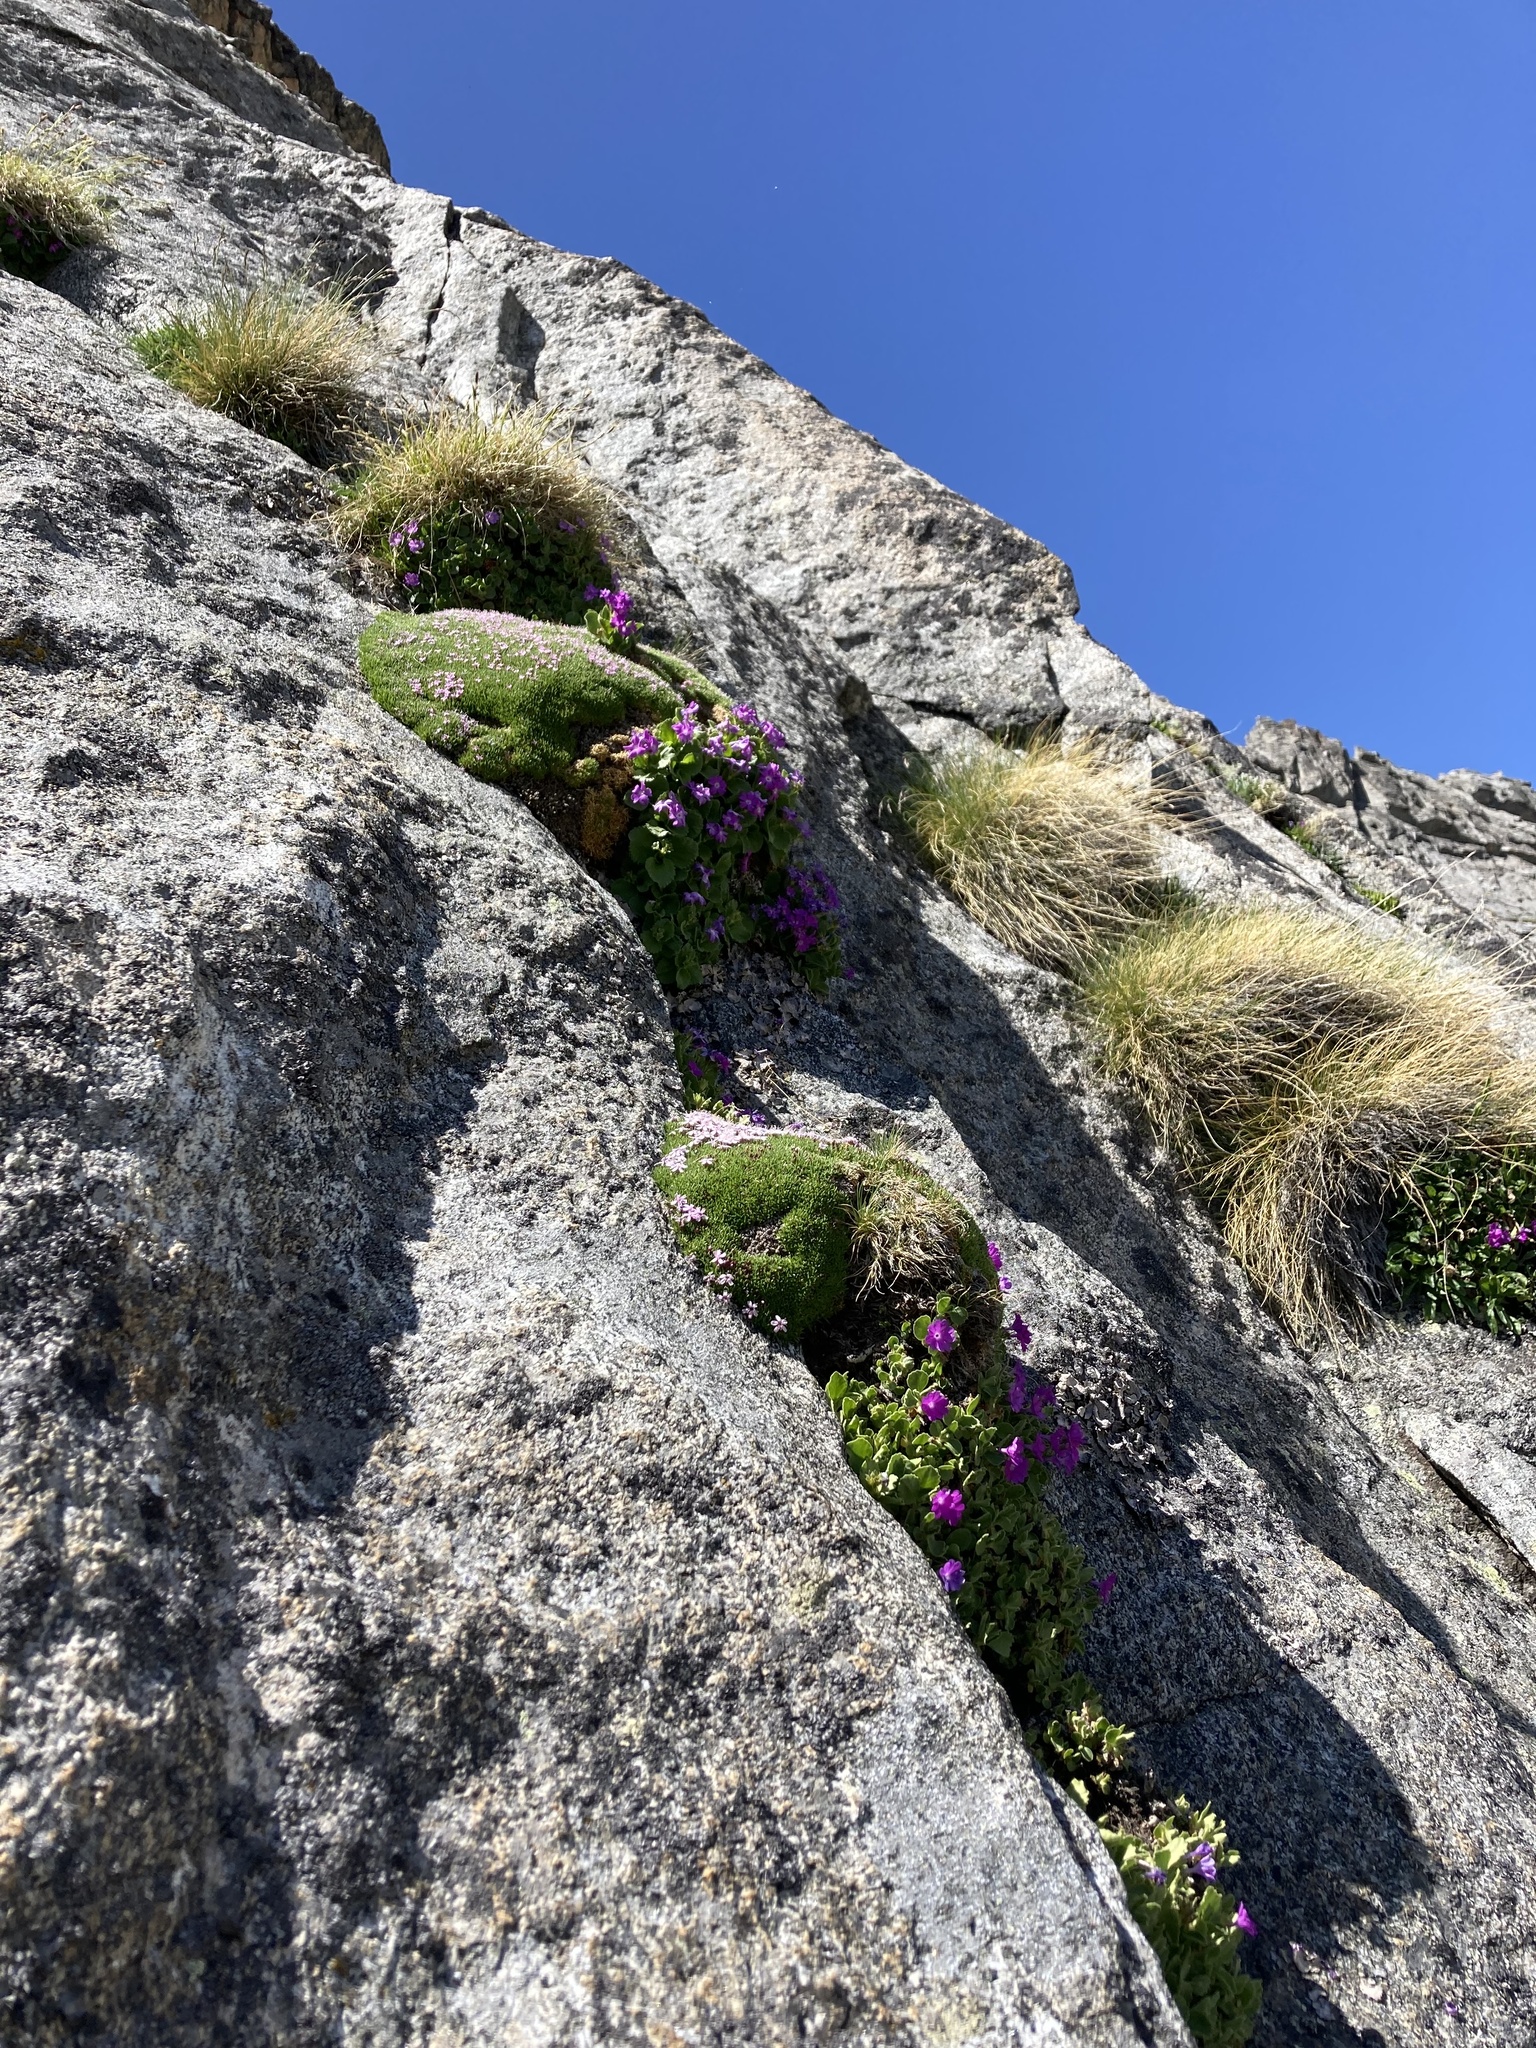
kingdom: Plantae
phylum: Tracheophyta
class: Magnoliopsida
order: Caryophyllales
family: Caryophyllaceae
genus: Silene
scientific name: Silene acaulis
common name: Moss campion
